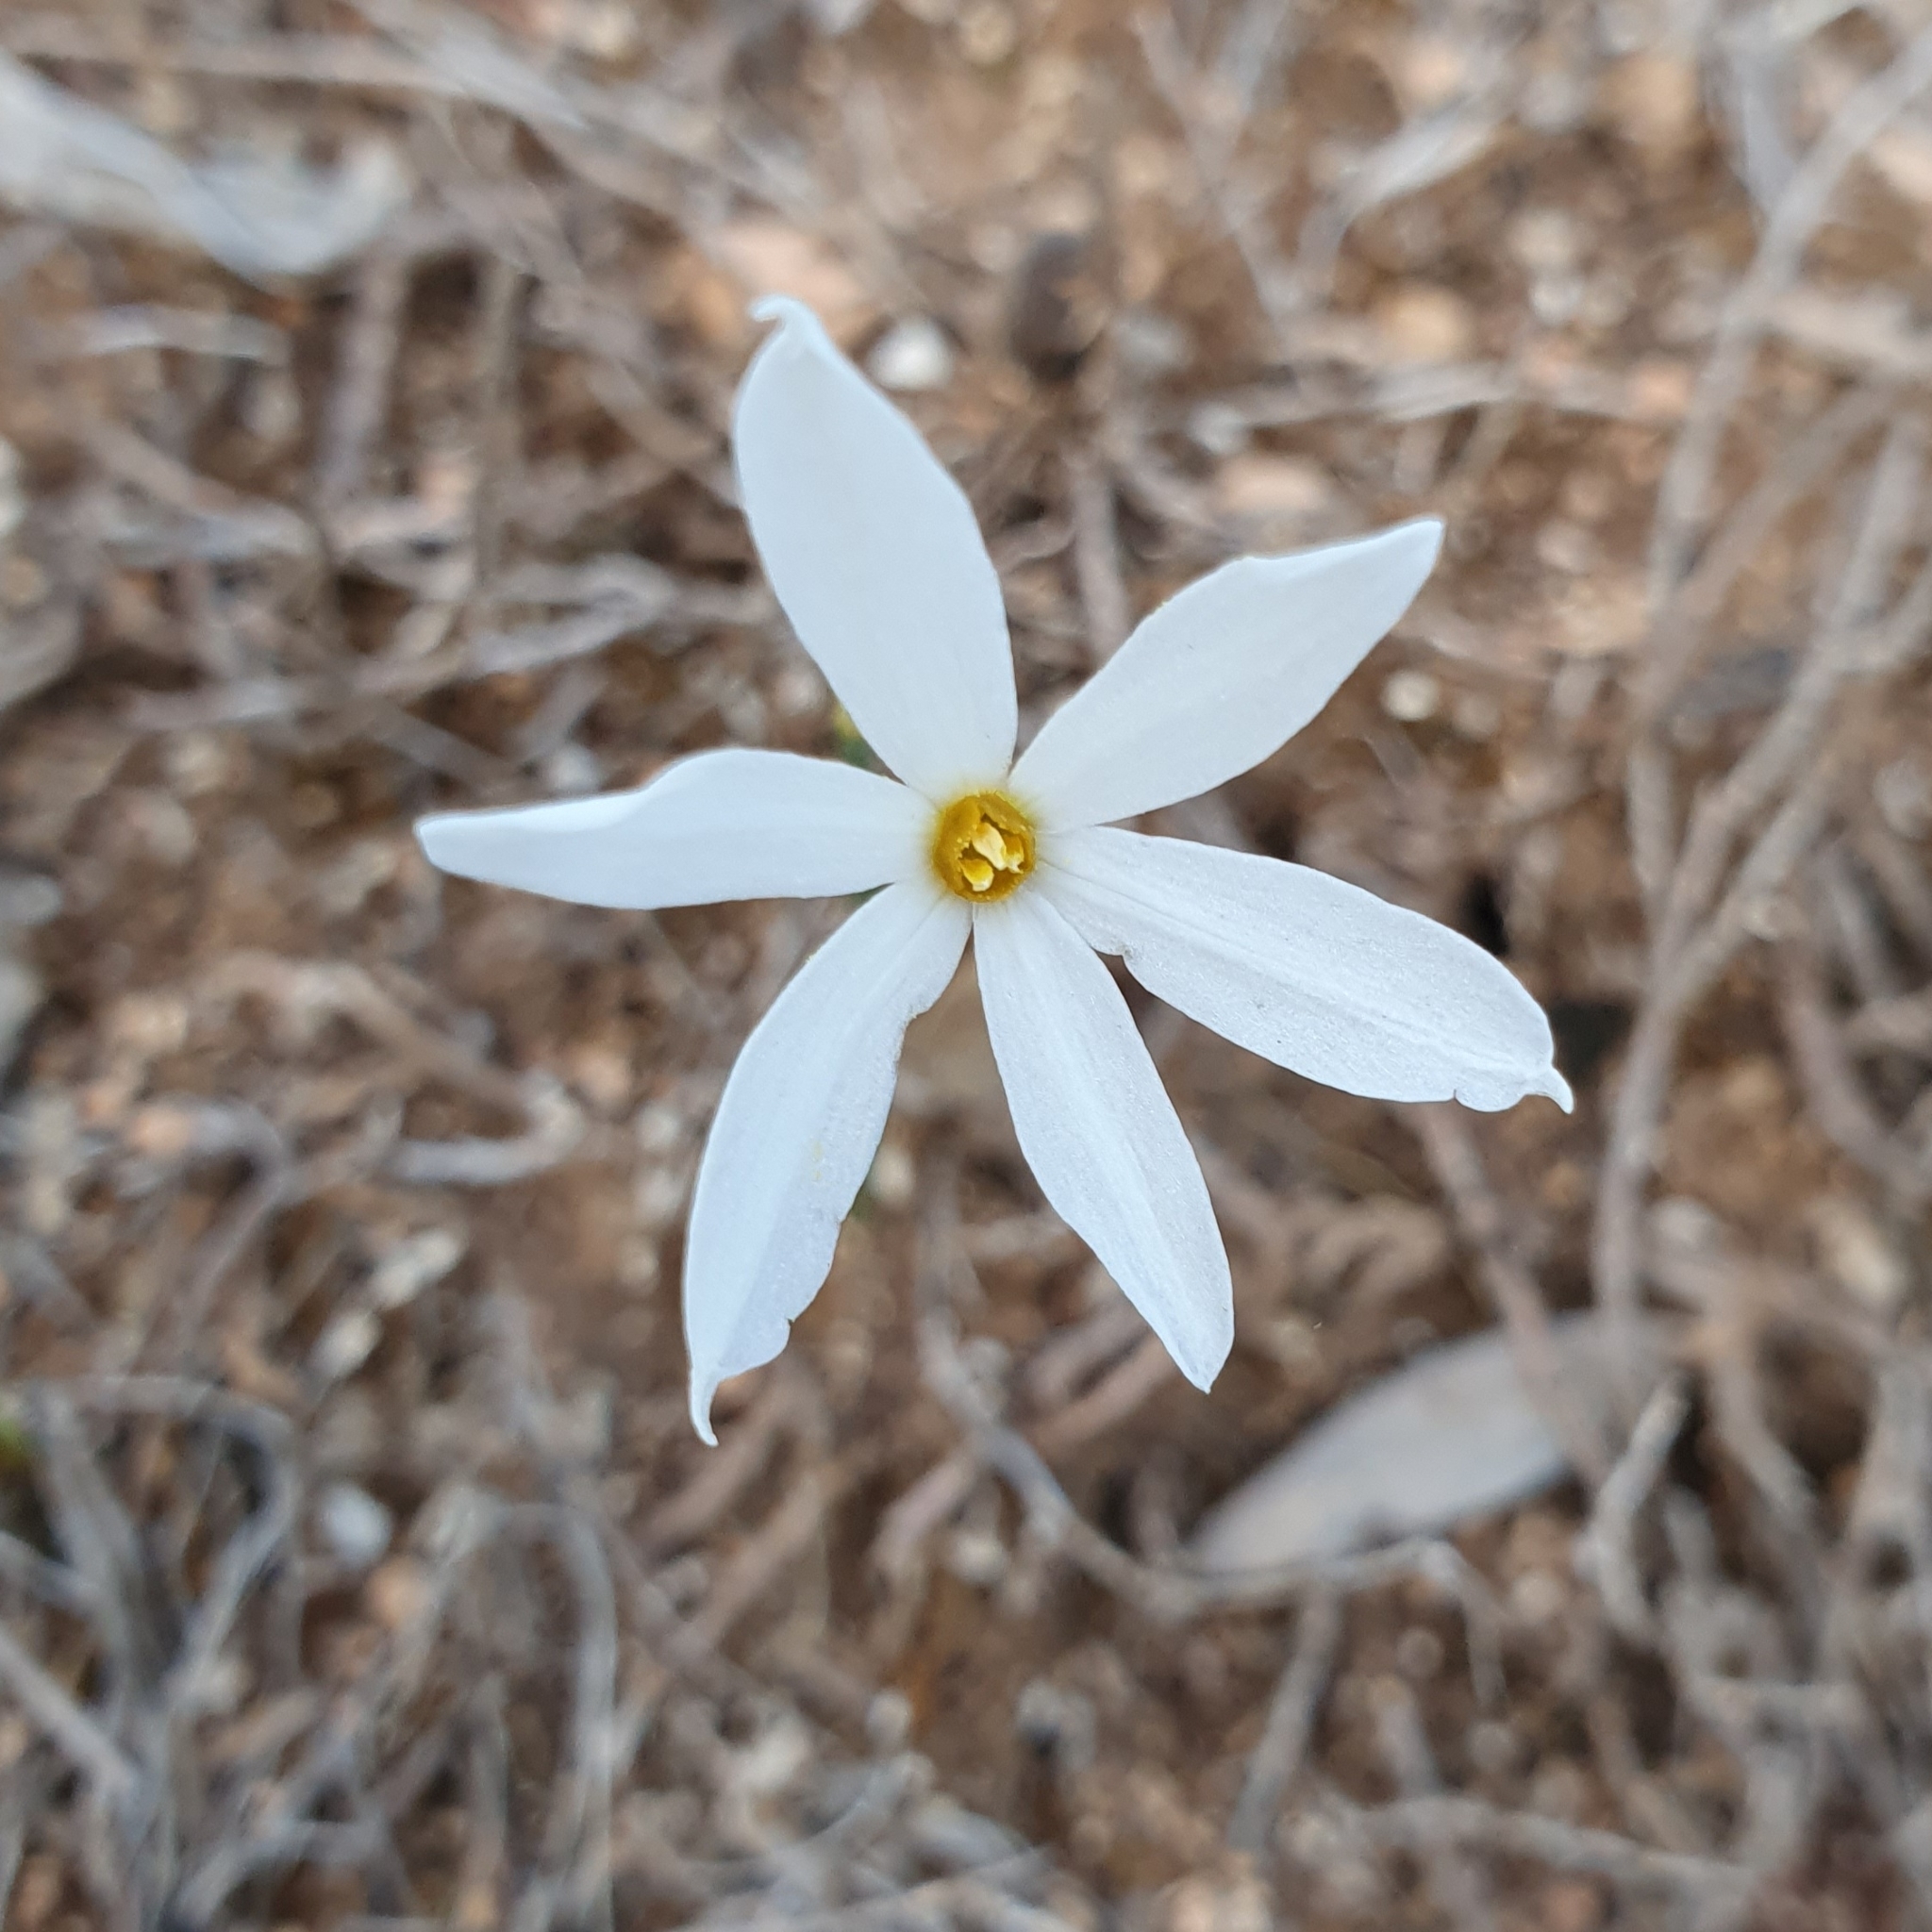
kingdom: Plantae
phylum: Tracheophyta
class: Liliopsida
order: Asparagales
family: Amaryllidaceae
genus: Narcissus
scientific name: Narcissus deficiens
